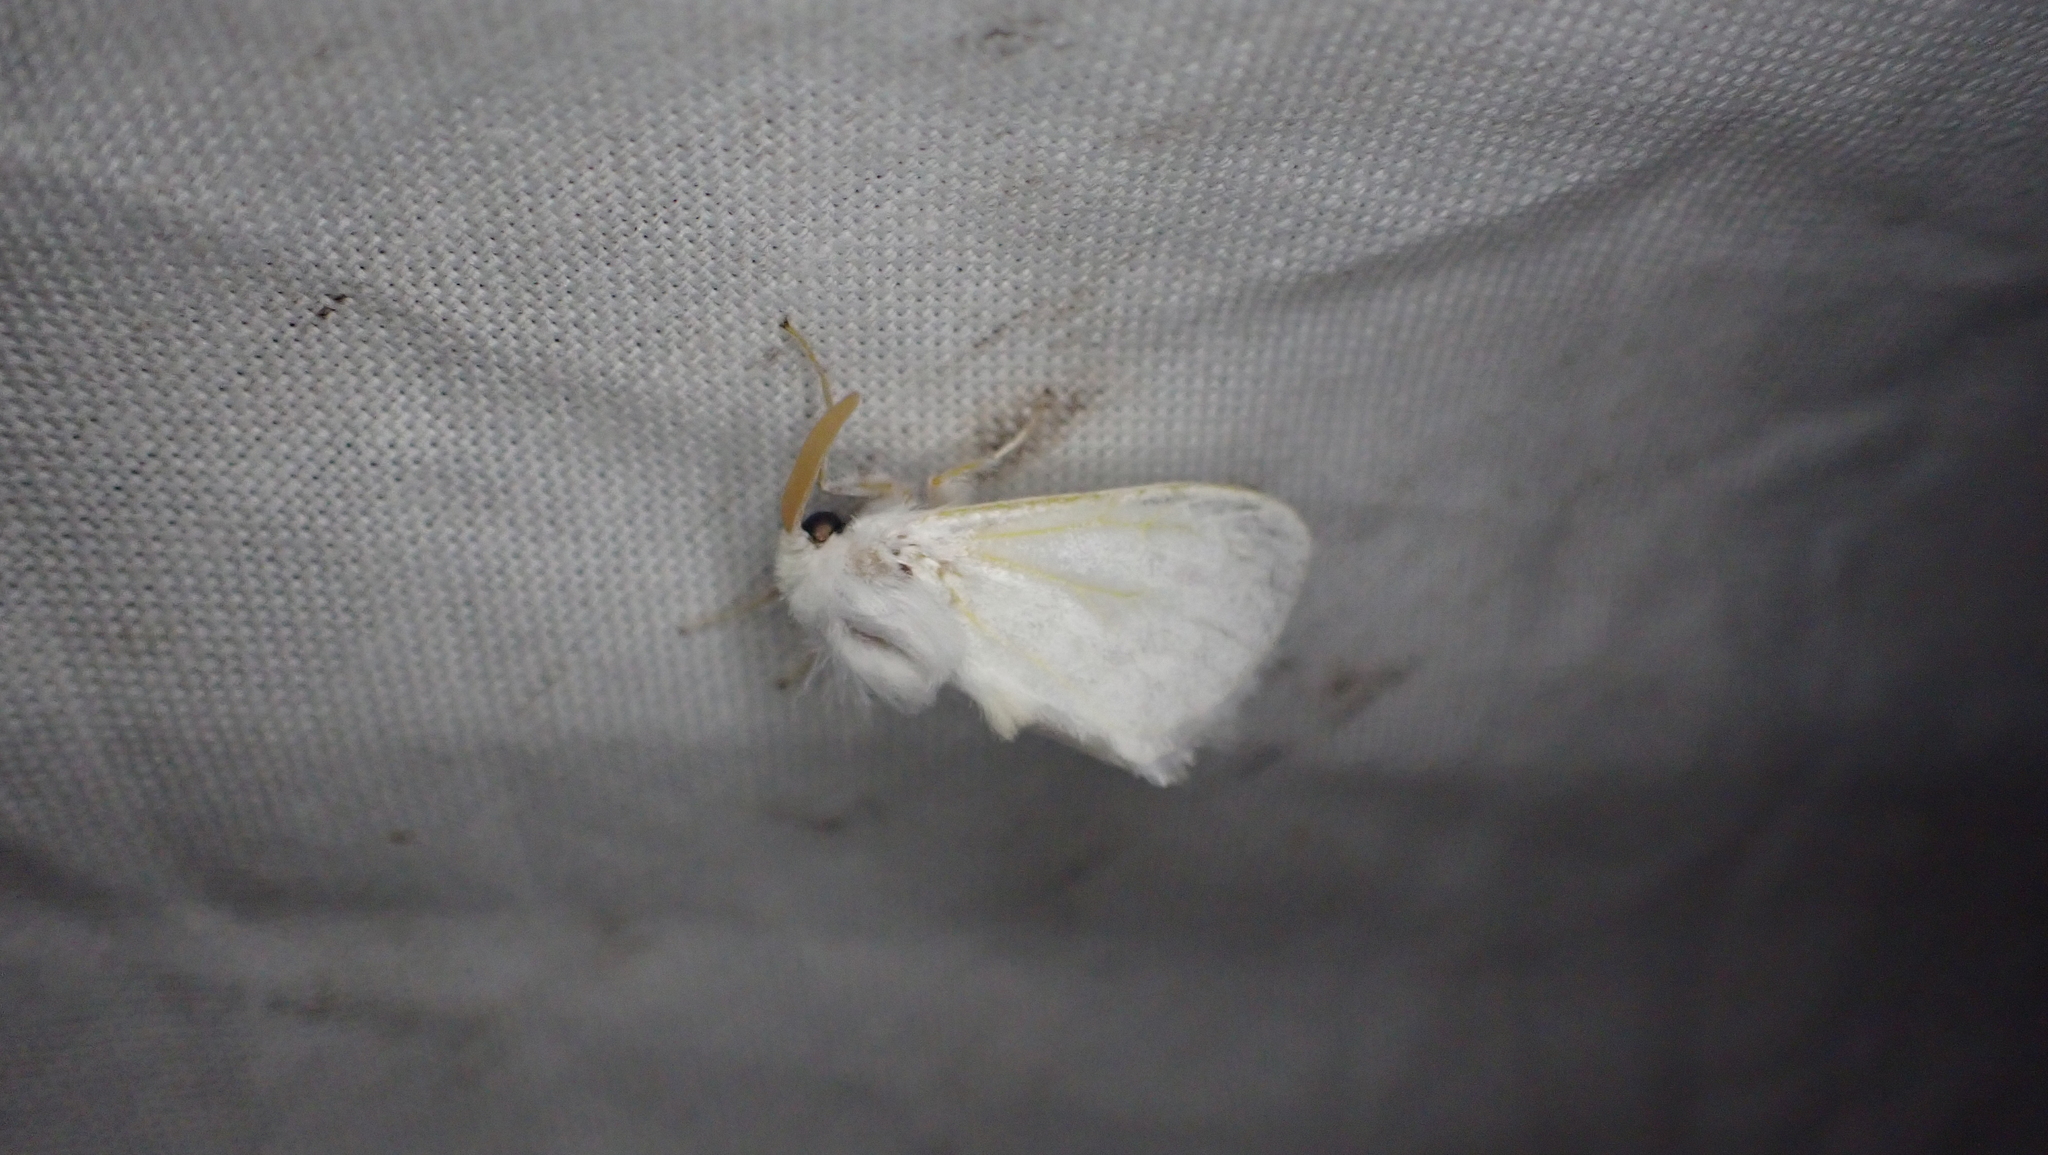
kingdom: Animalia
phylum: Arthropoda
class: Insecta
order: Lepidoptera
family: Megalopygidae
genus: Norape
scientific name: Norape cretata
